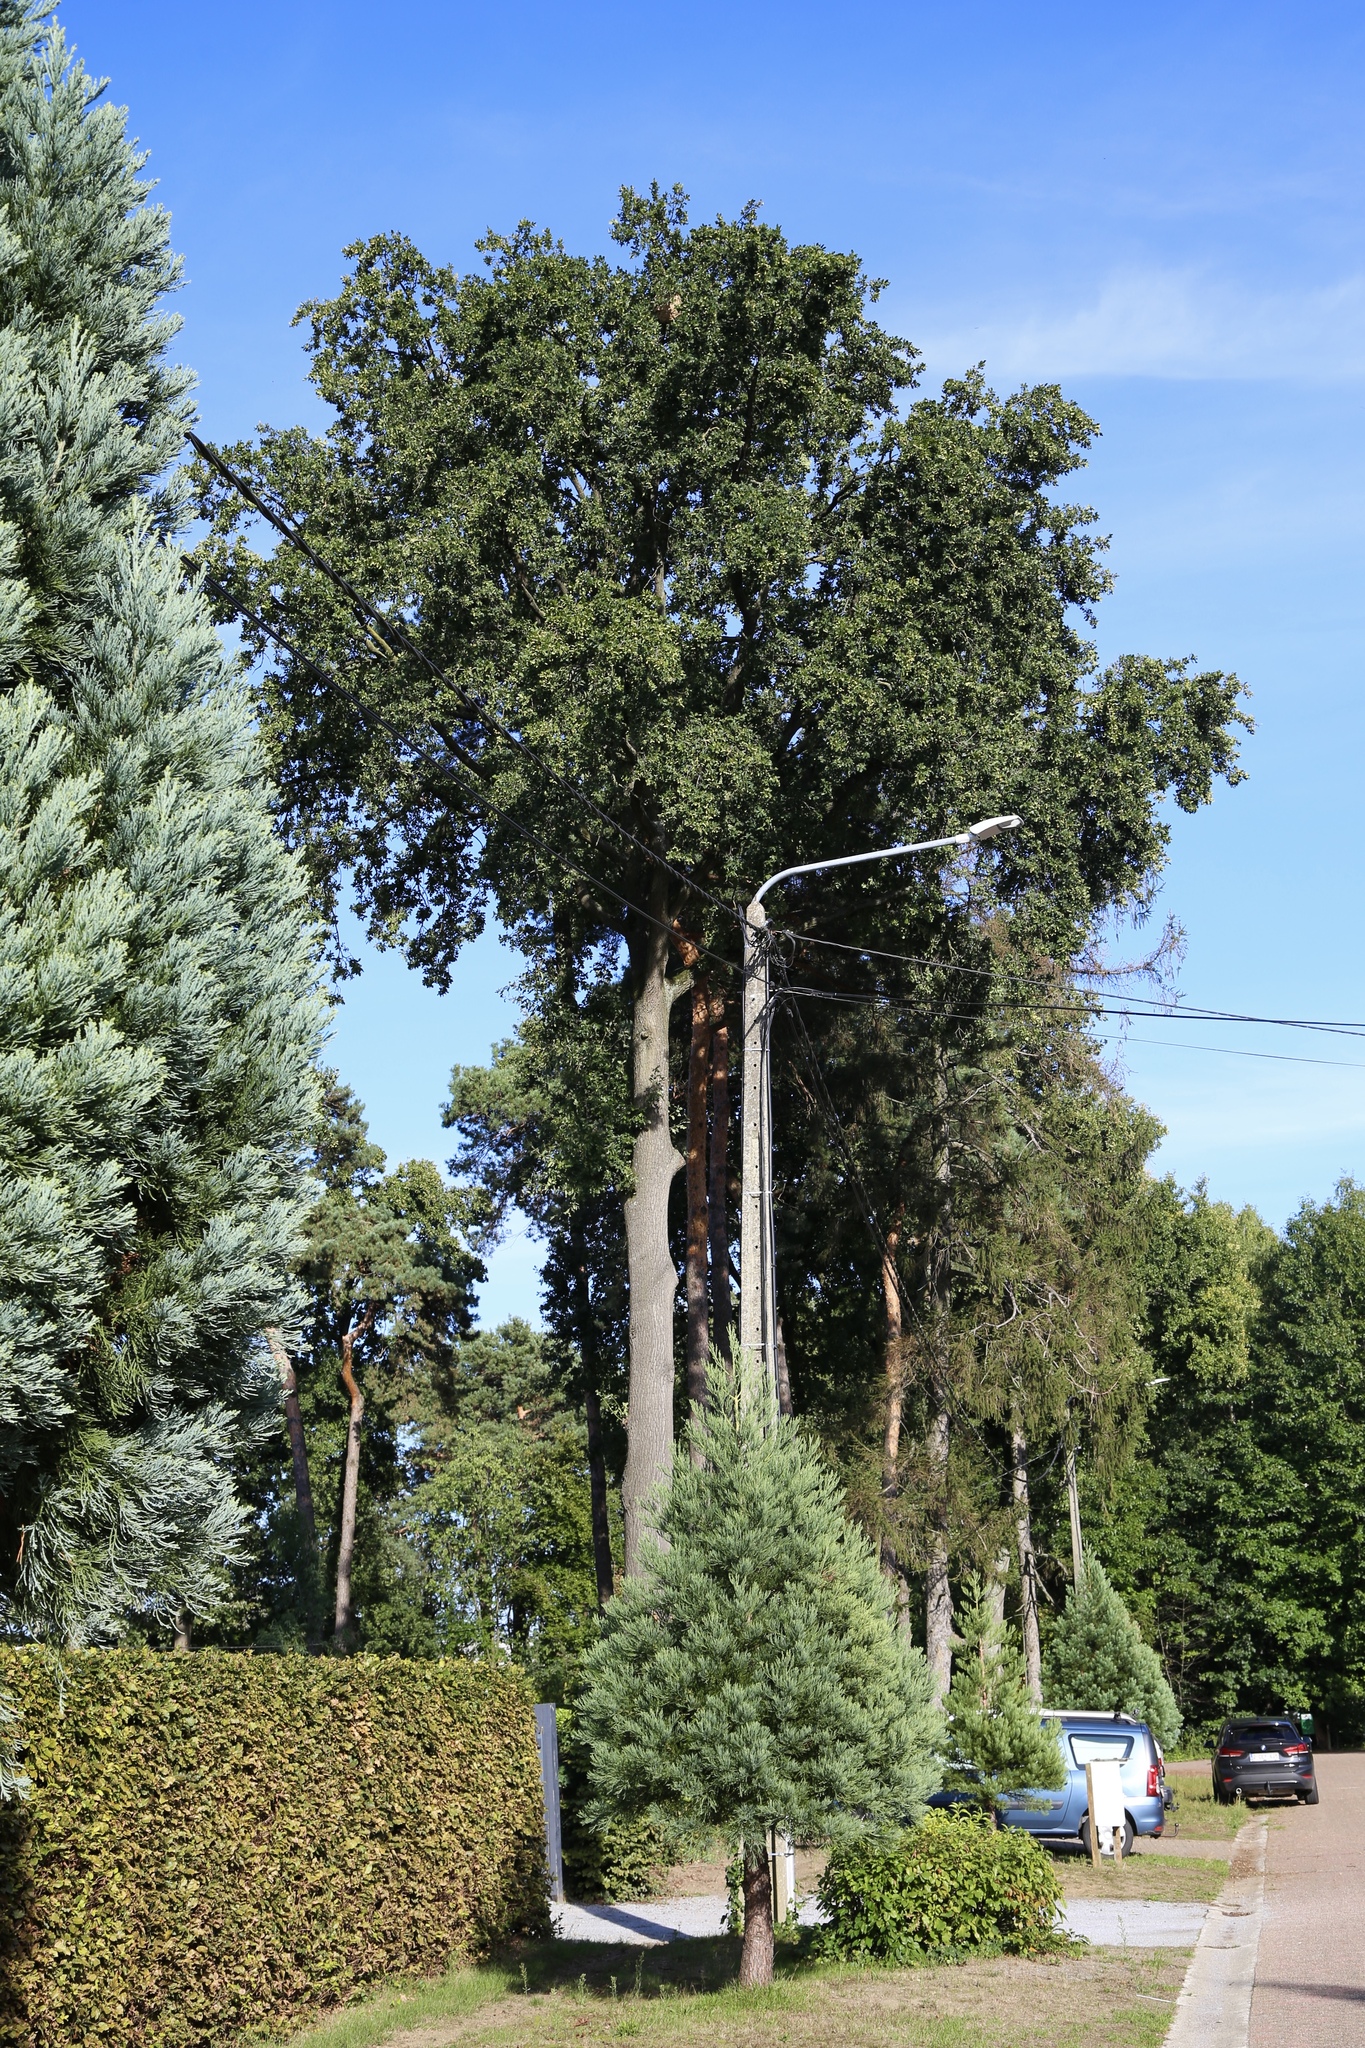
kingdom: Animalia
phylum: Arthropoda
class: Insecta
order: Hymenoptera
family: Vespidae
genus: Vespa
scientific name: Vespa velutina
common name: Asian hornet
